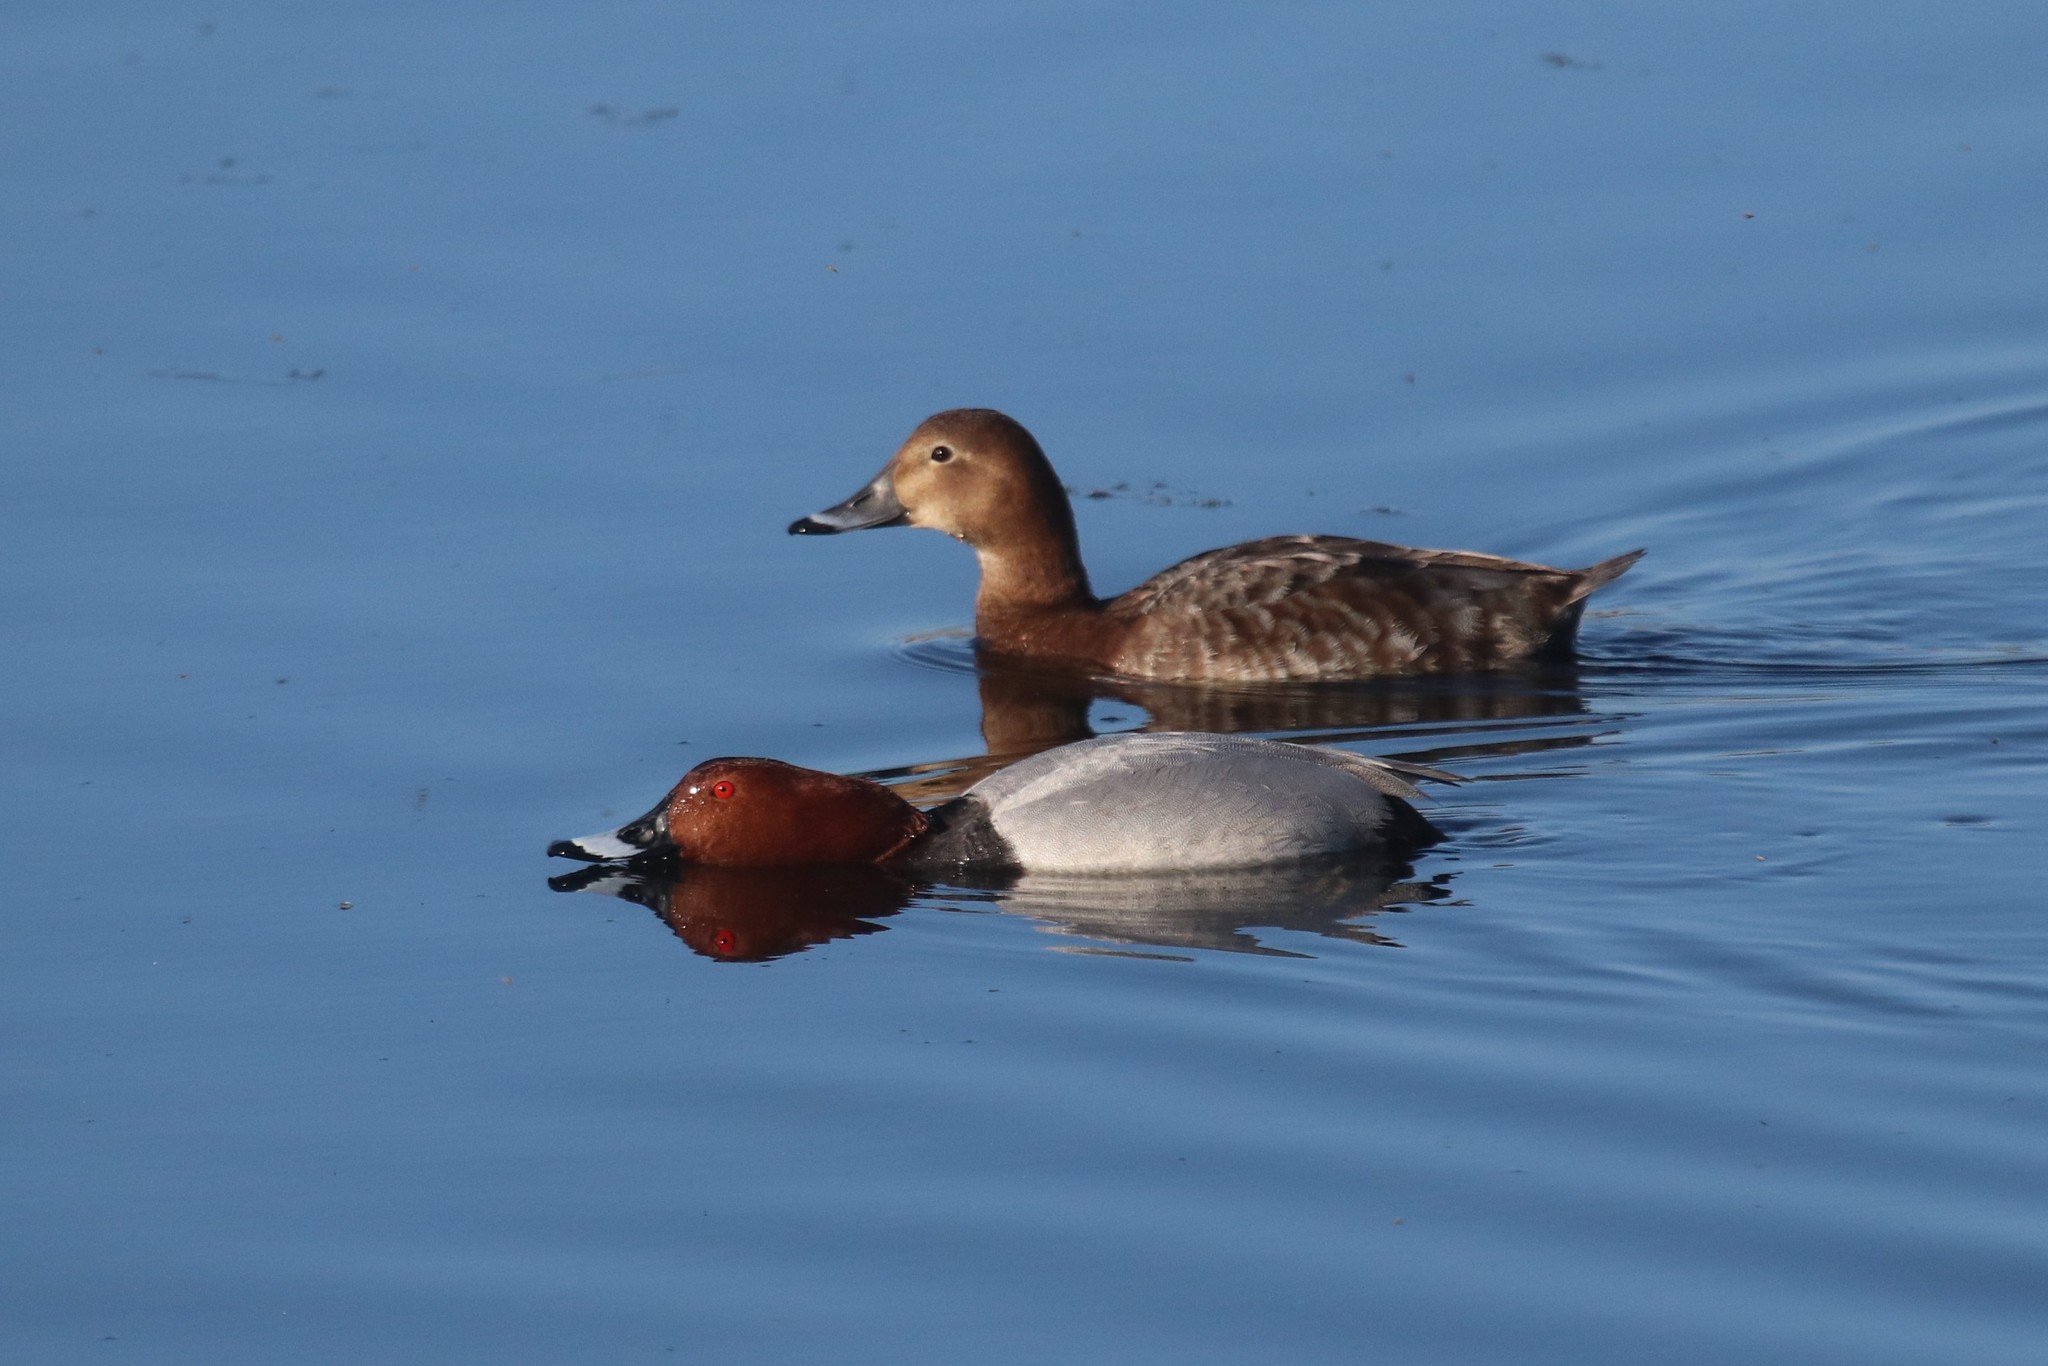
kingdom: Animalia
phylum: Chordata
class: Aves
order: Anseriformes
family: Anatidae
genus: Aythya
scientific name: Aythya ferina
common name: Common pochard
